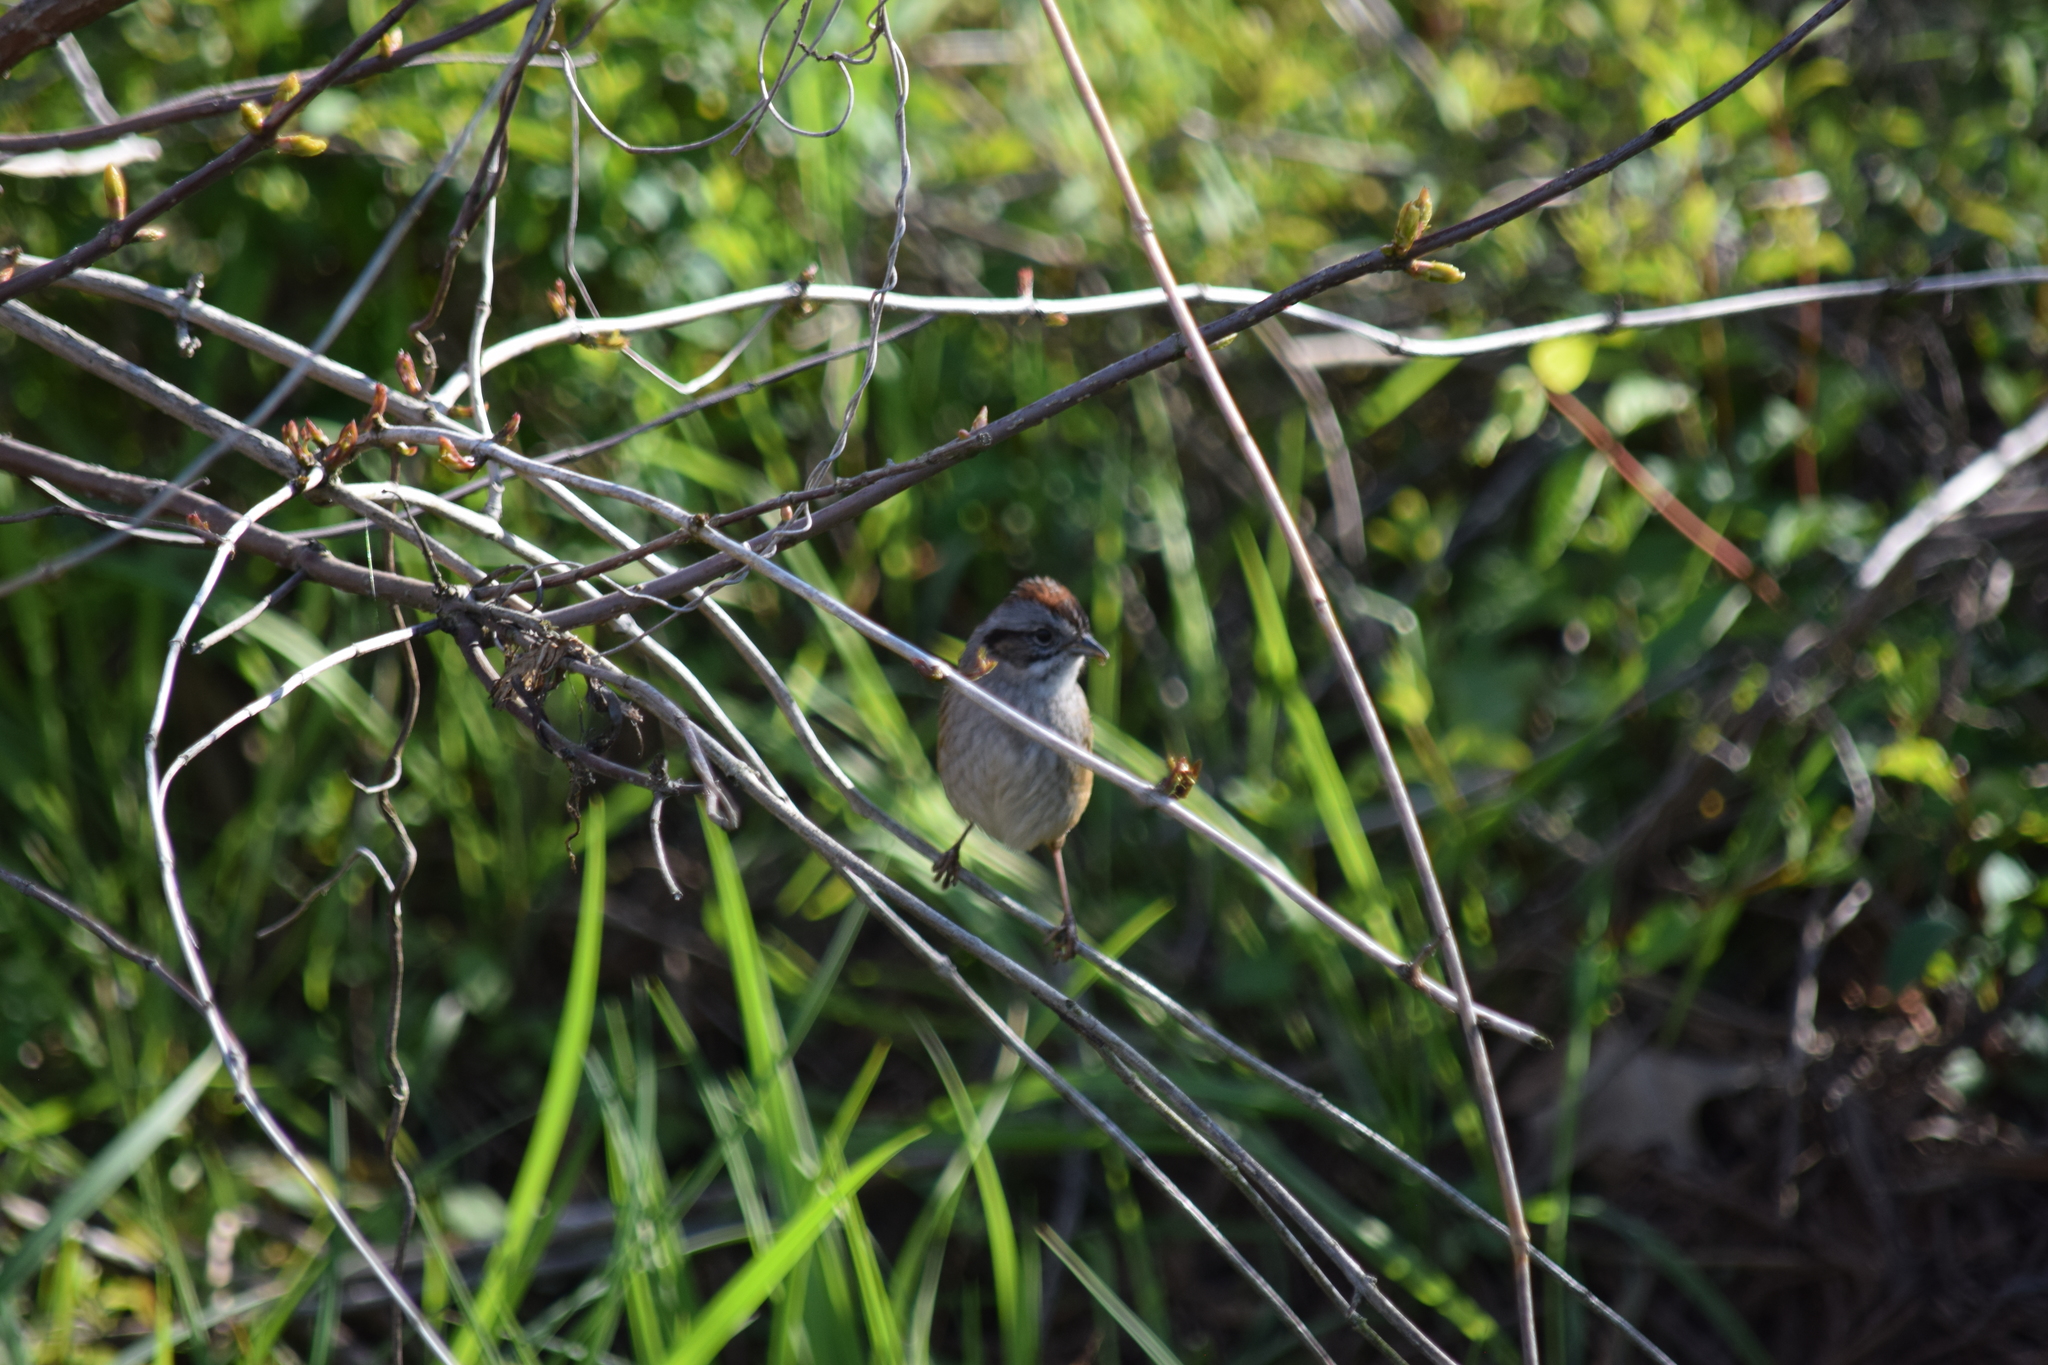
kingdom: Animalia
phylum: Chordata
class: Aves
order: Passeriformes
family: Passerellidae
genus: Melospiza
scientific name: Melospiza georgiana
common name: Swamp sparrow
